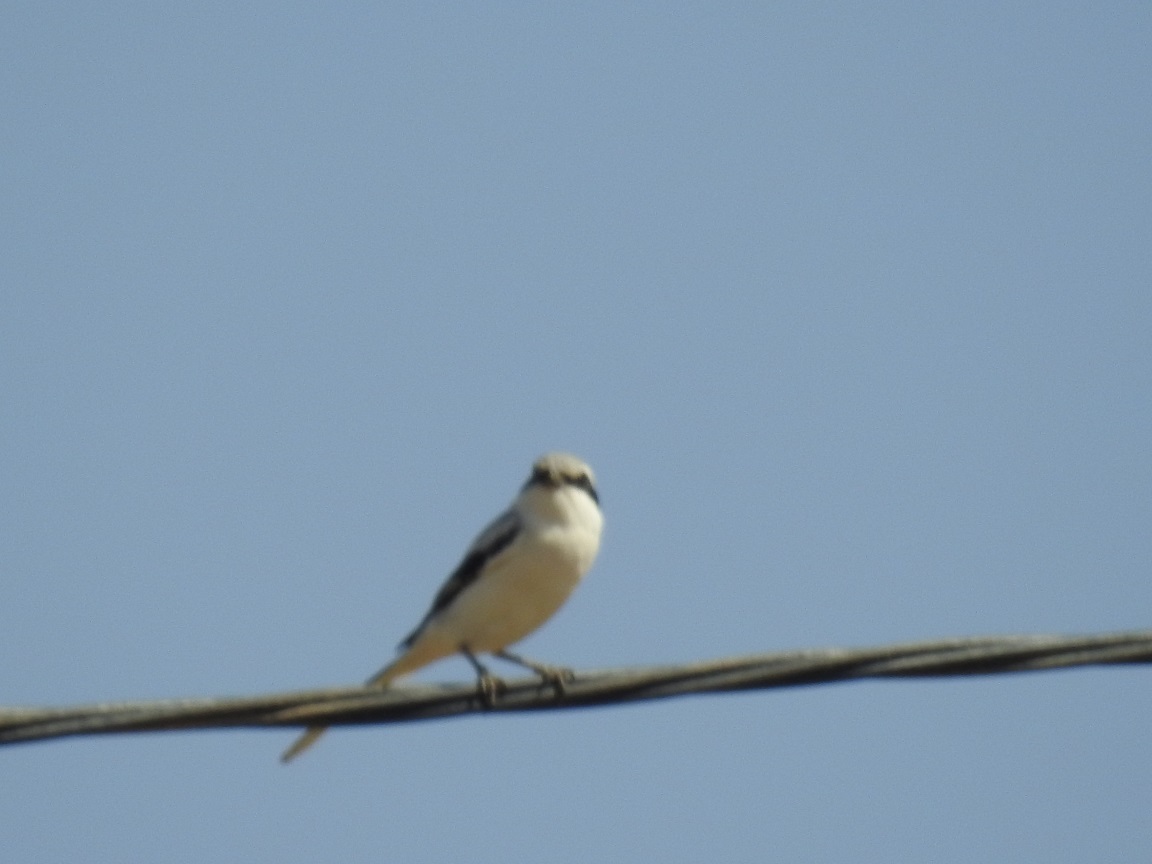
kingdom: Animalia
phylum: Chordata
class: Aves
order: Passeriformes
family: Laniidae
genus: Lanius
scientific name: Lanius excubitor
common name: Great grey shrike
